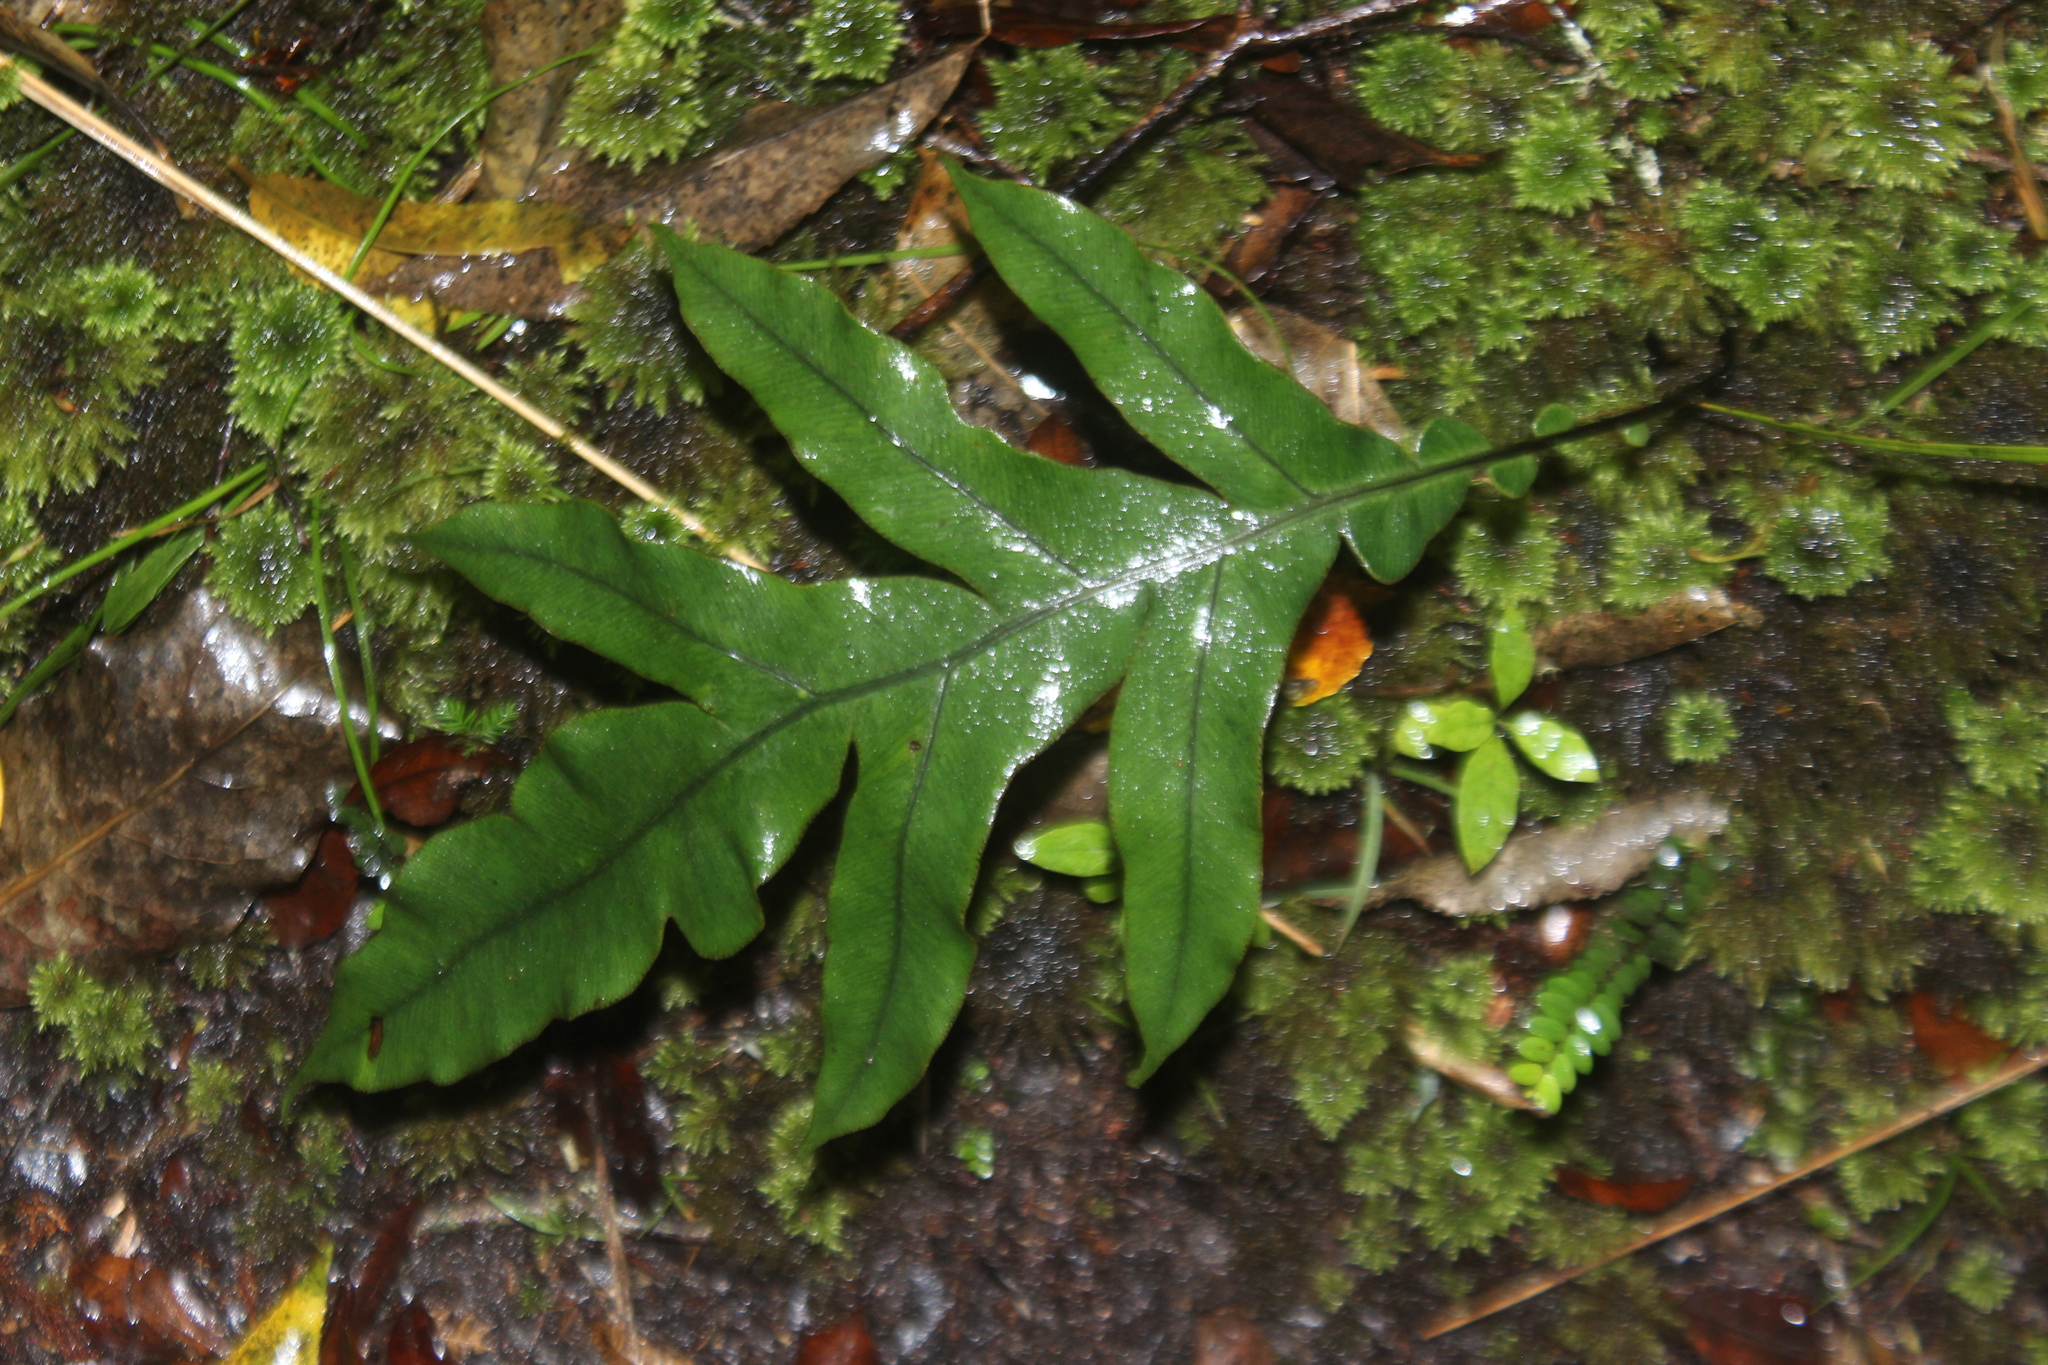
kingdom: Plantae
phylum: Tracheophyta
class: Polypodiopsida
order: Polypodiales
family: Blechnaceae
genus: Austroblechnum
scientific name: Austroblechnum colensoi
